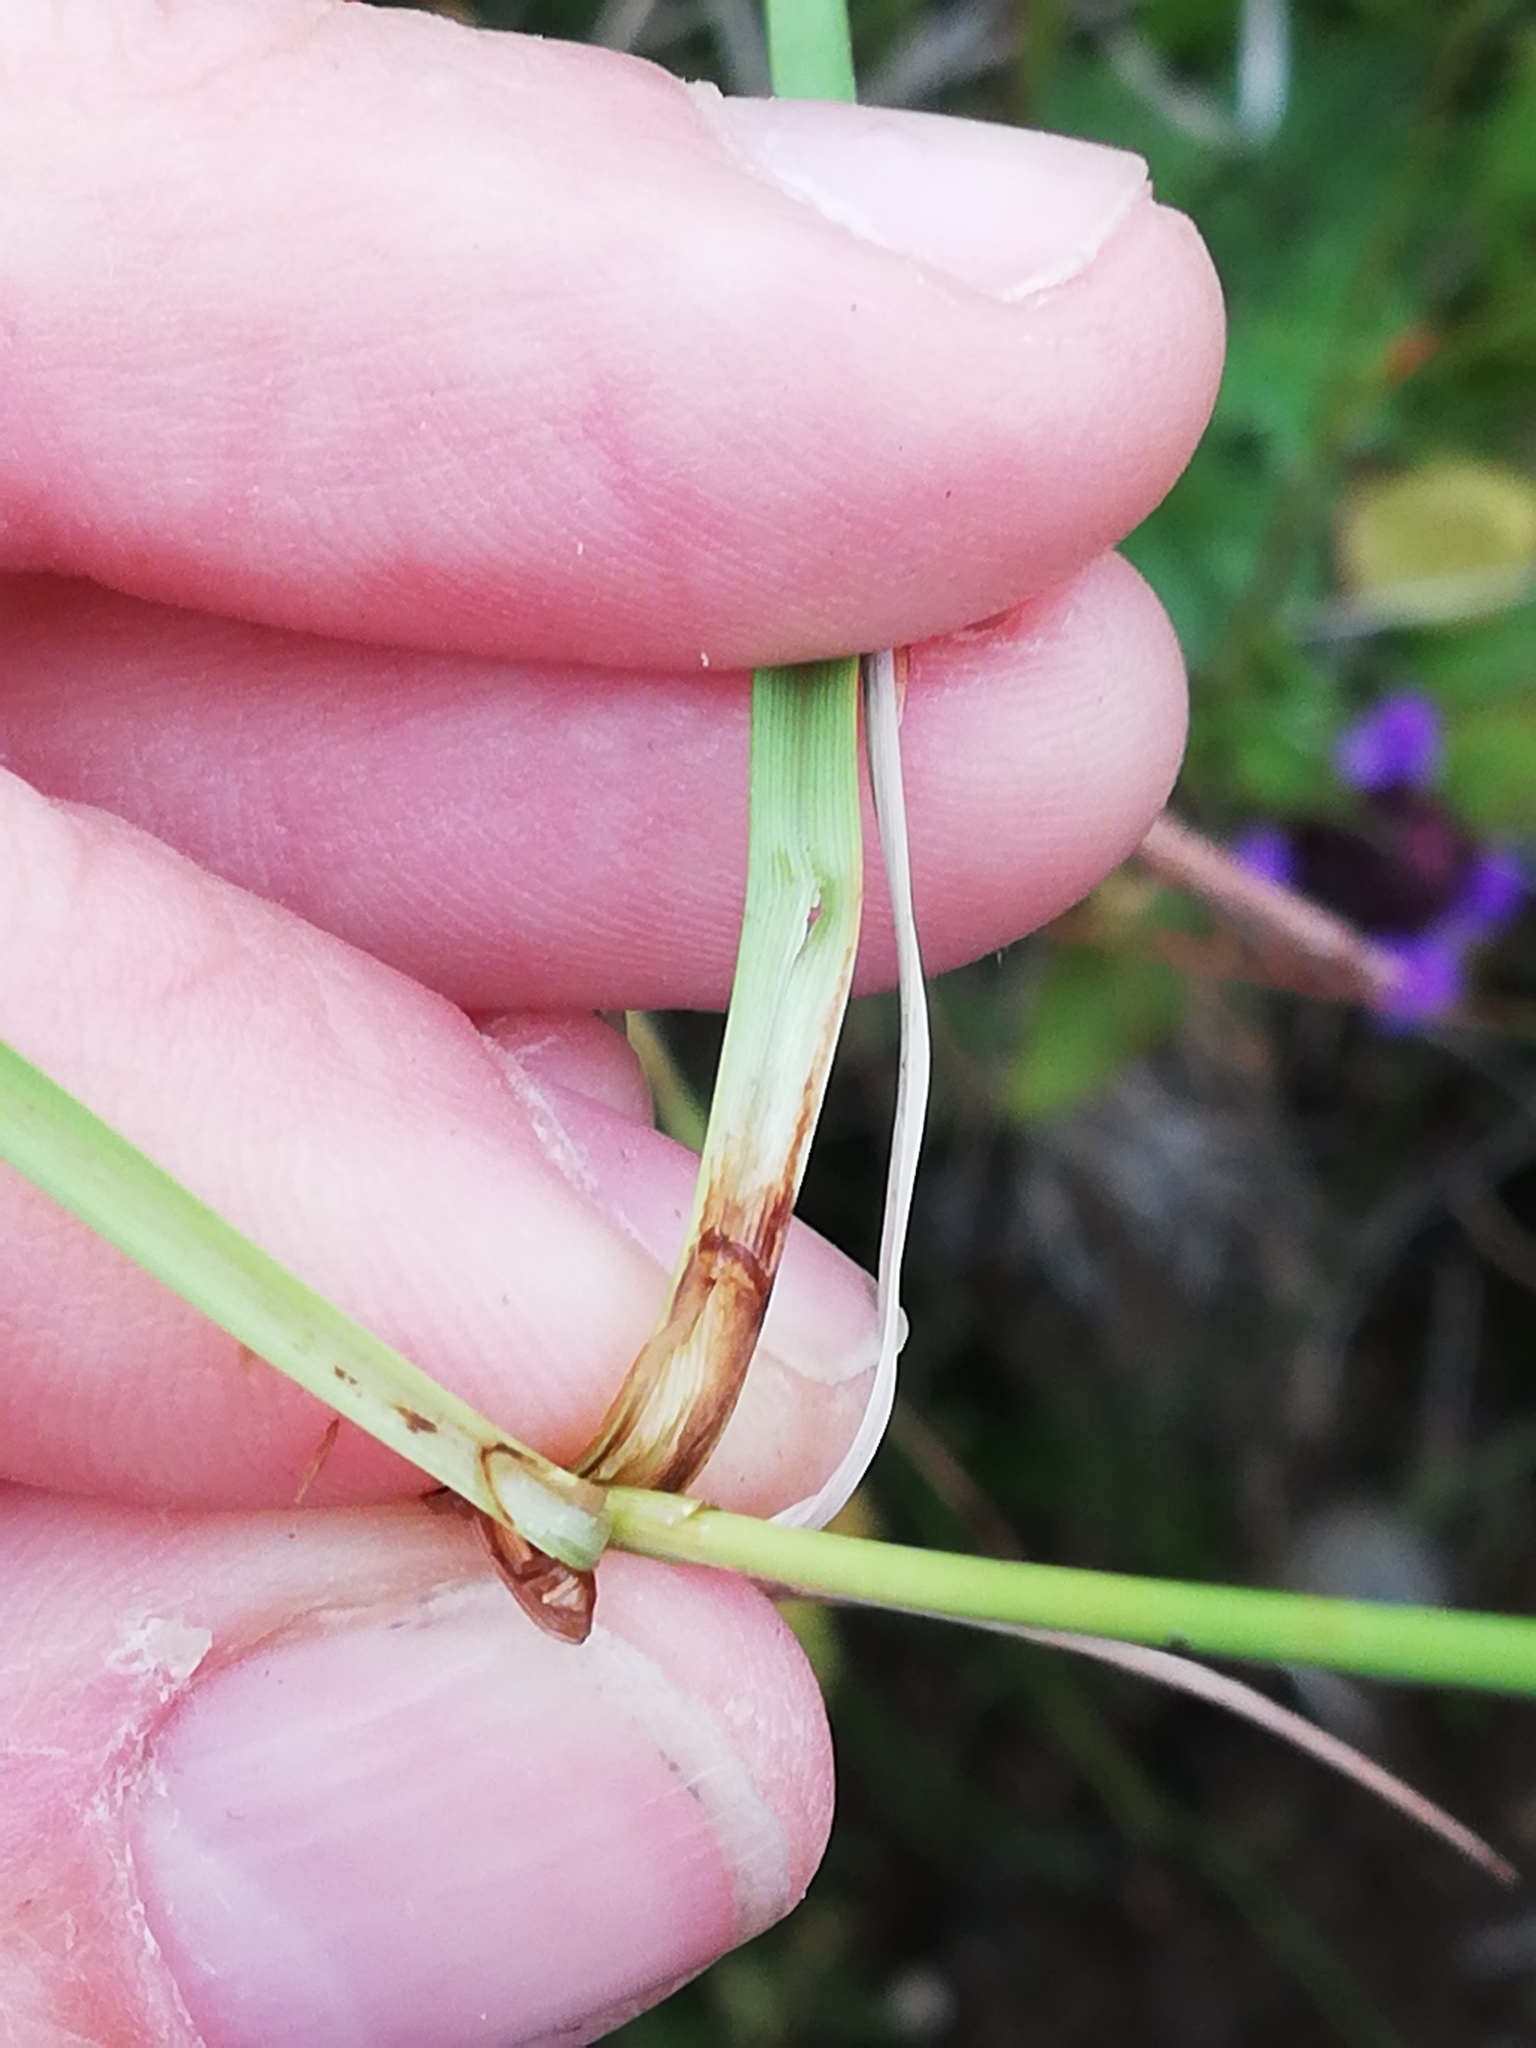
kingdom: Plantae
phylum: Tracheophyta
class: Liliopsida
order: Poales
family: Cyperaceae
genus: Carex
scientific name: Carex nigra
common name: Common sedge
